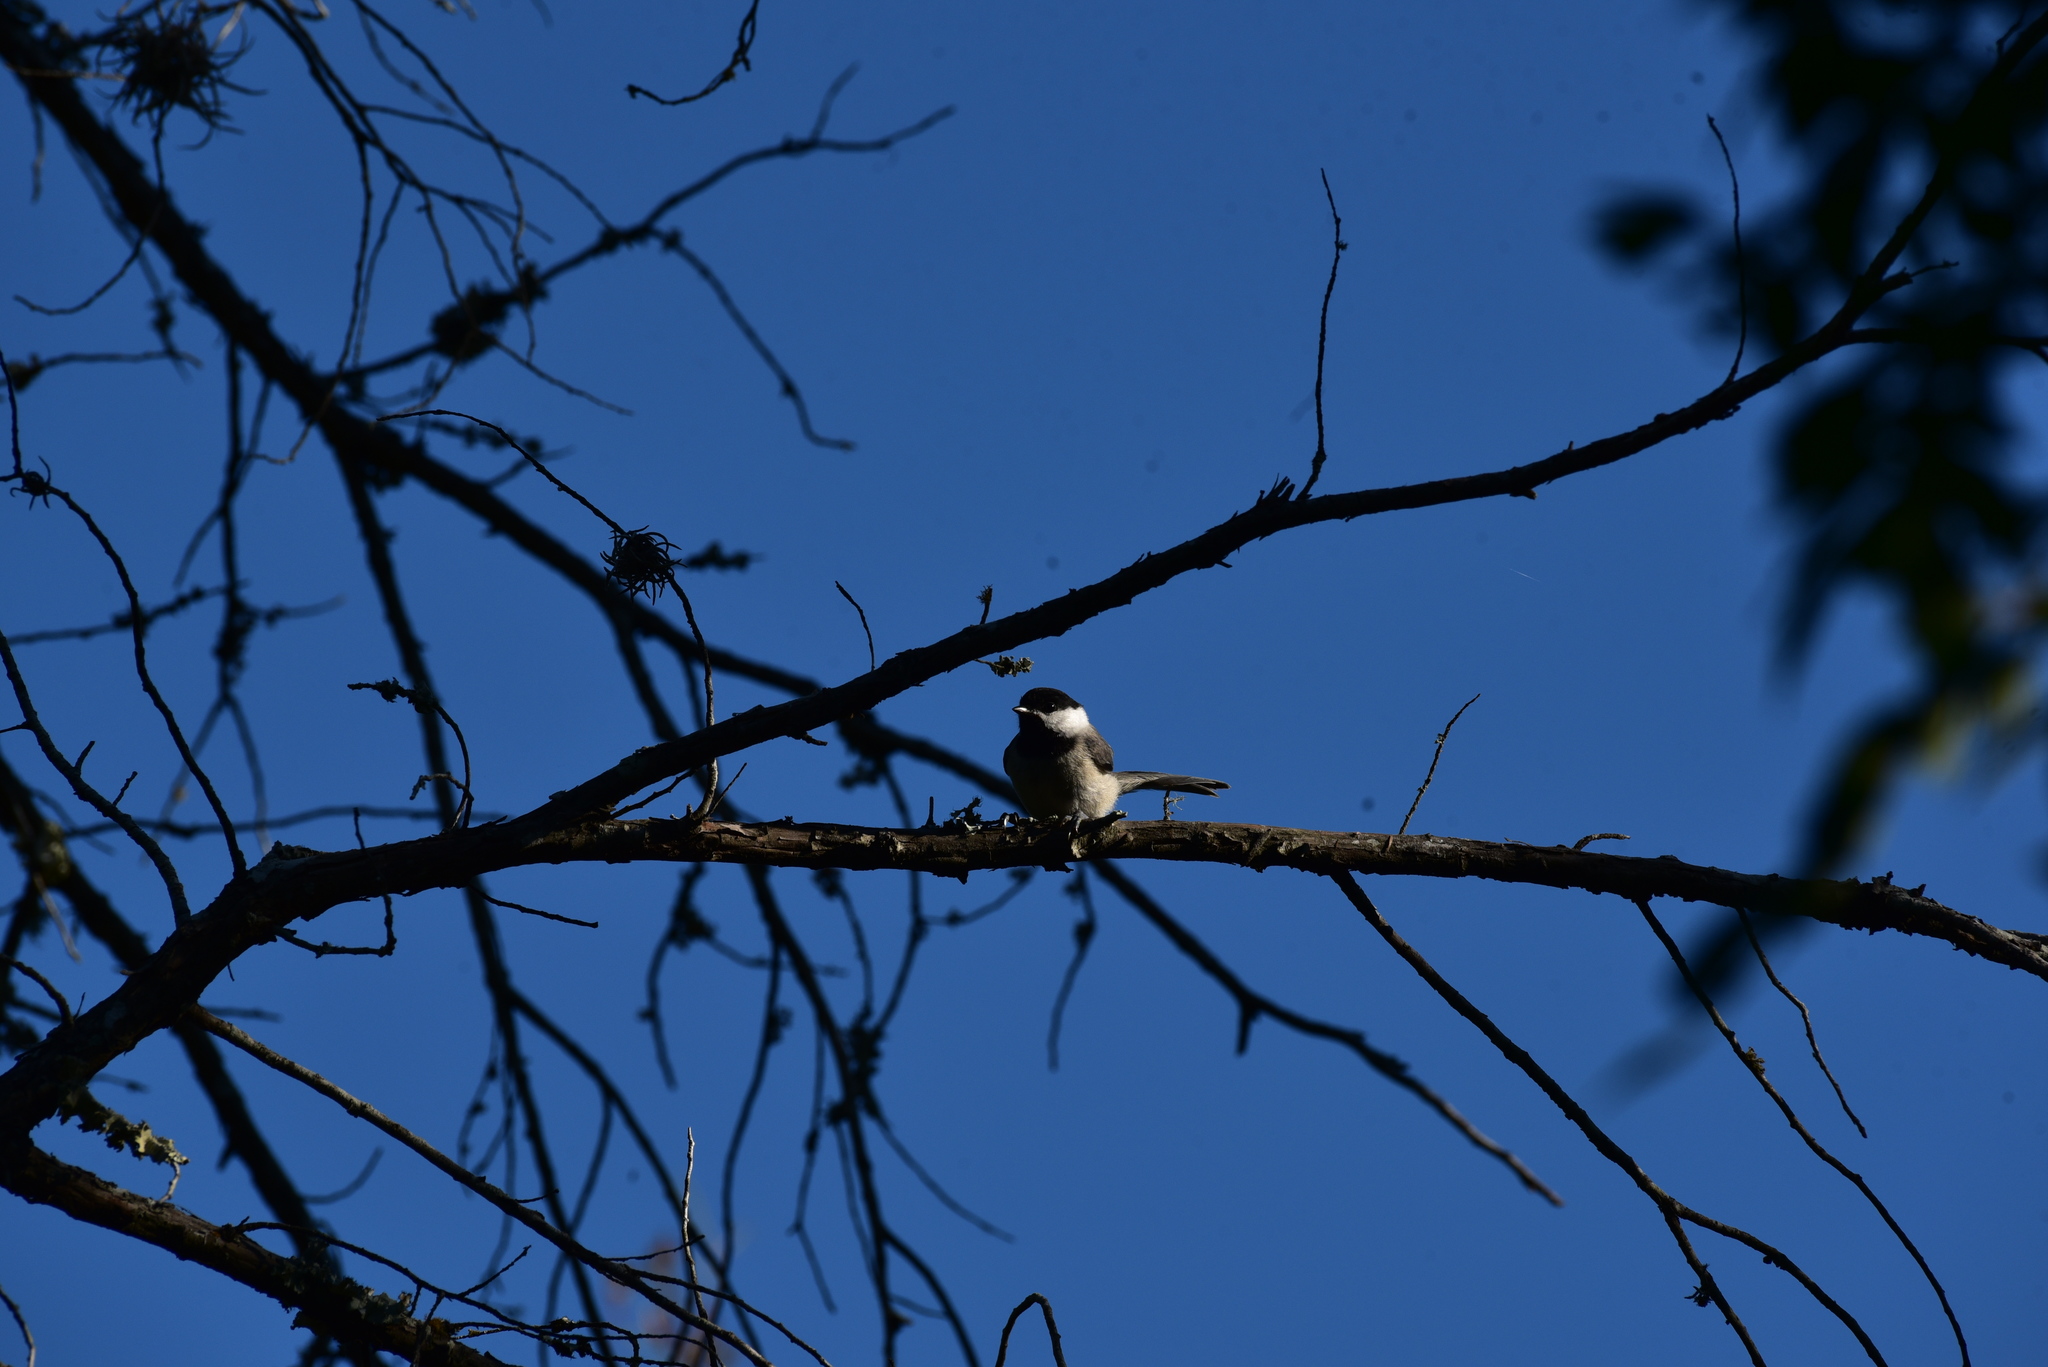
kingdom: Animalia
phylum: Chordata
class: Aves
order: Passeriformes
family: Paridae
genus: Poecile
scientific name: Poecile carolinensis
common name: Carolina chickadee
